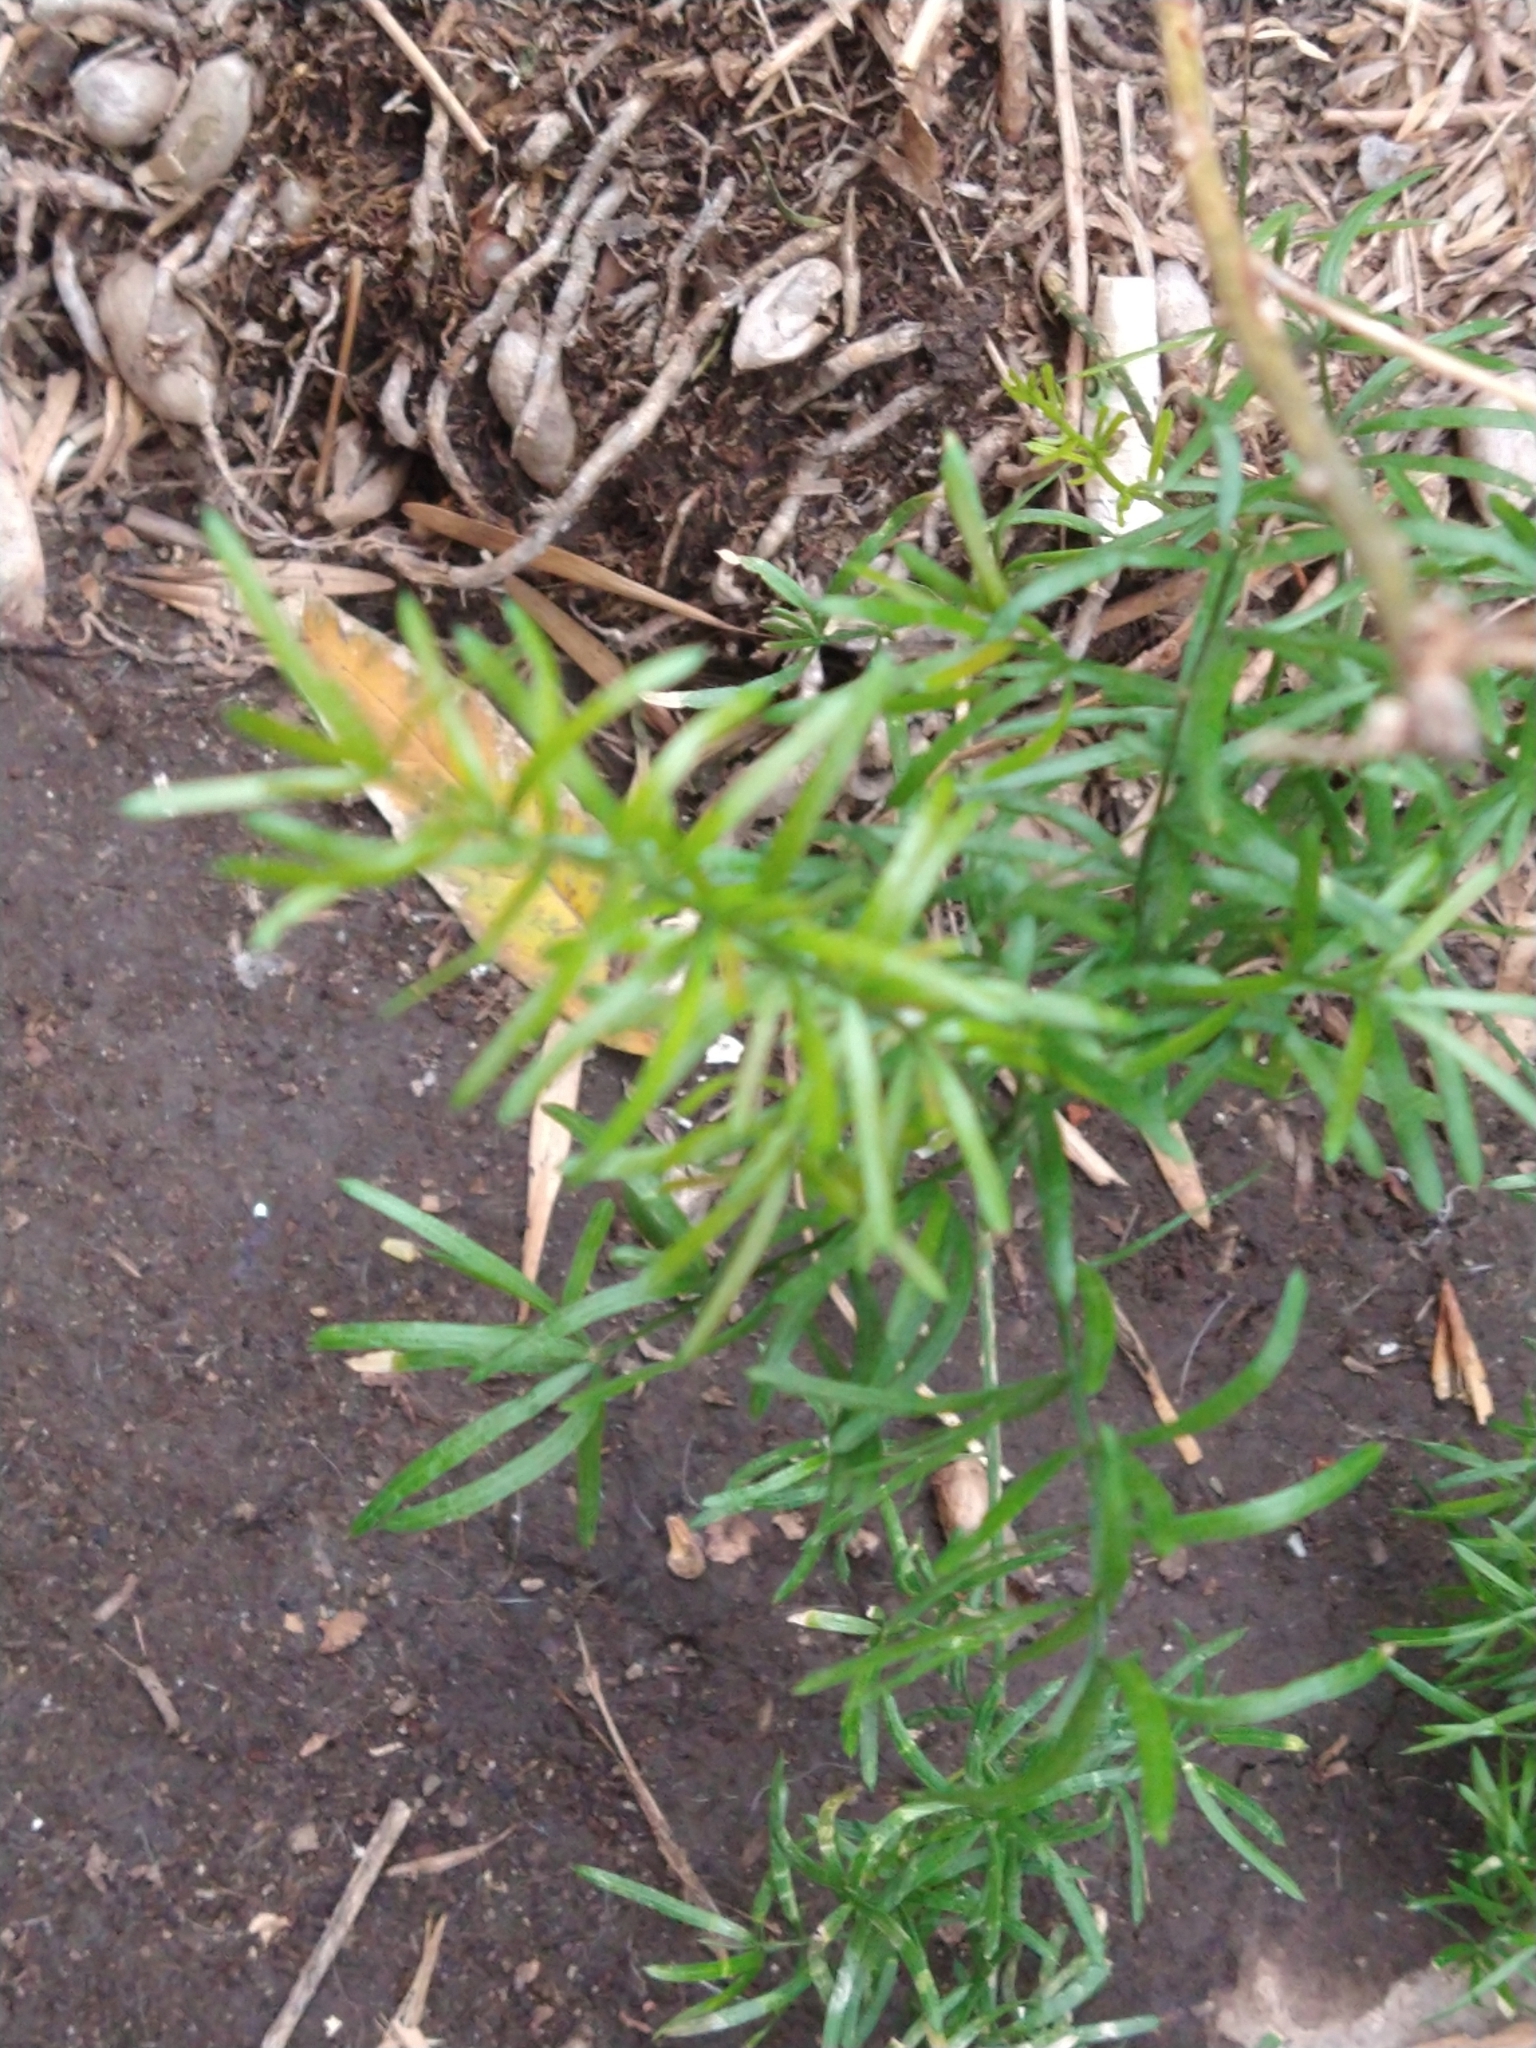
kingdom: Plantae
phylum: Tracheophyta
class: Liliopsida
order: Asparagales
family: Asparagaceae
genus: Asparagus
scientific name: Asparagus aethiopicus
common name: Sprenger's asparagus fern
